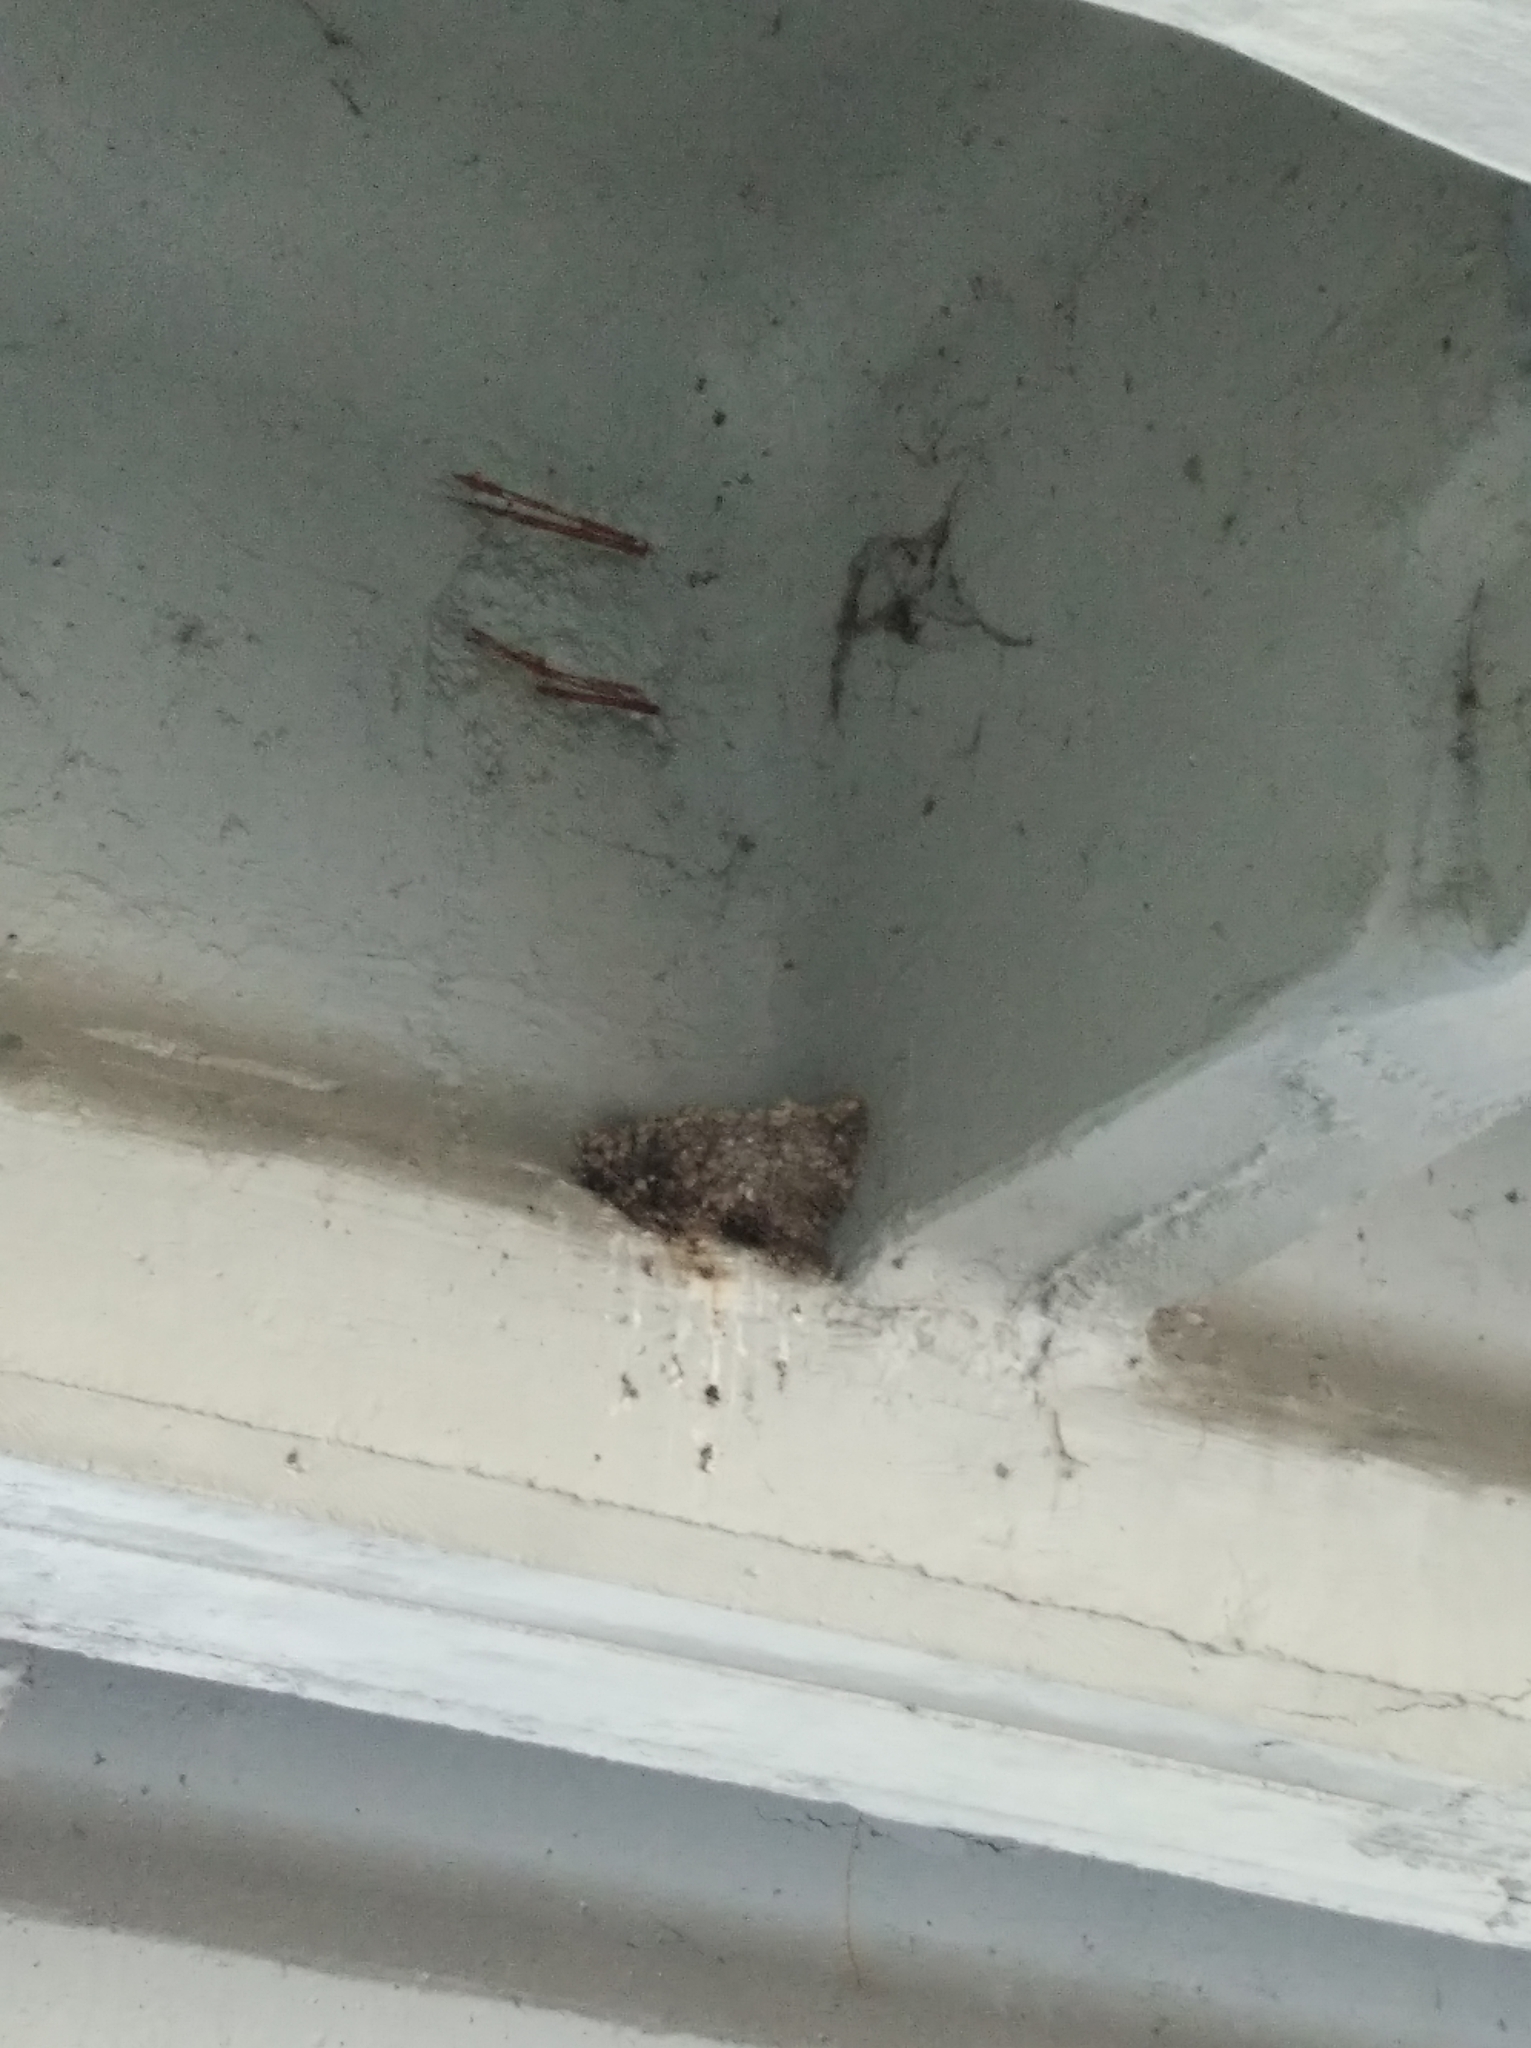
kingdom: Animalia
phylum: Chordata
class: Aves
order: Passeriformes
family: Hirundinidae
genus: Hirundo
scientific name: Hirundo rustica
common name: Barn swallow
